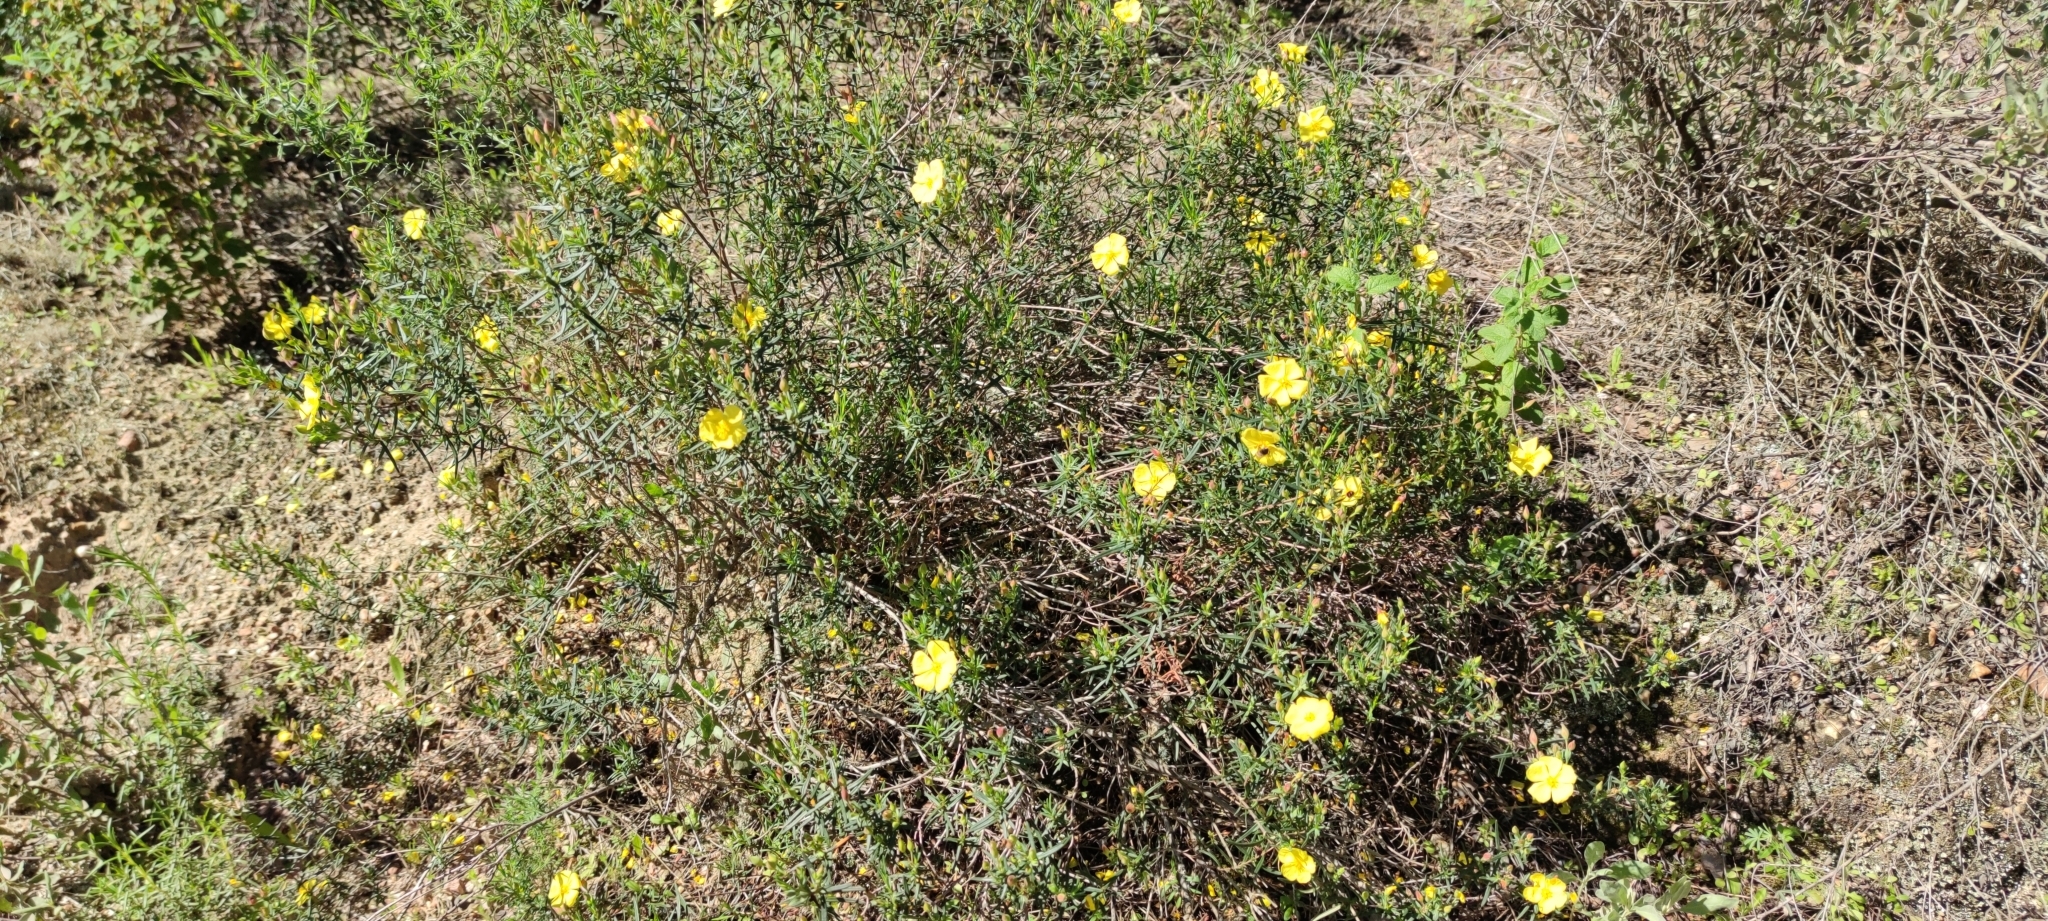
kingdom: Plantae
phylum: Tracheophyta
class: Magnoliopsida
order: Malvales
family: Cistaceae
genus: Halimium
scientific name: Halimium calycinum
